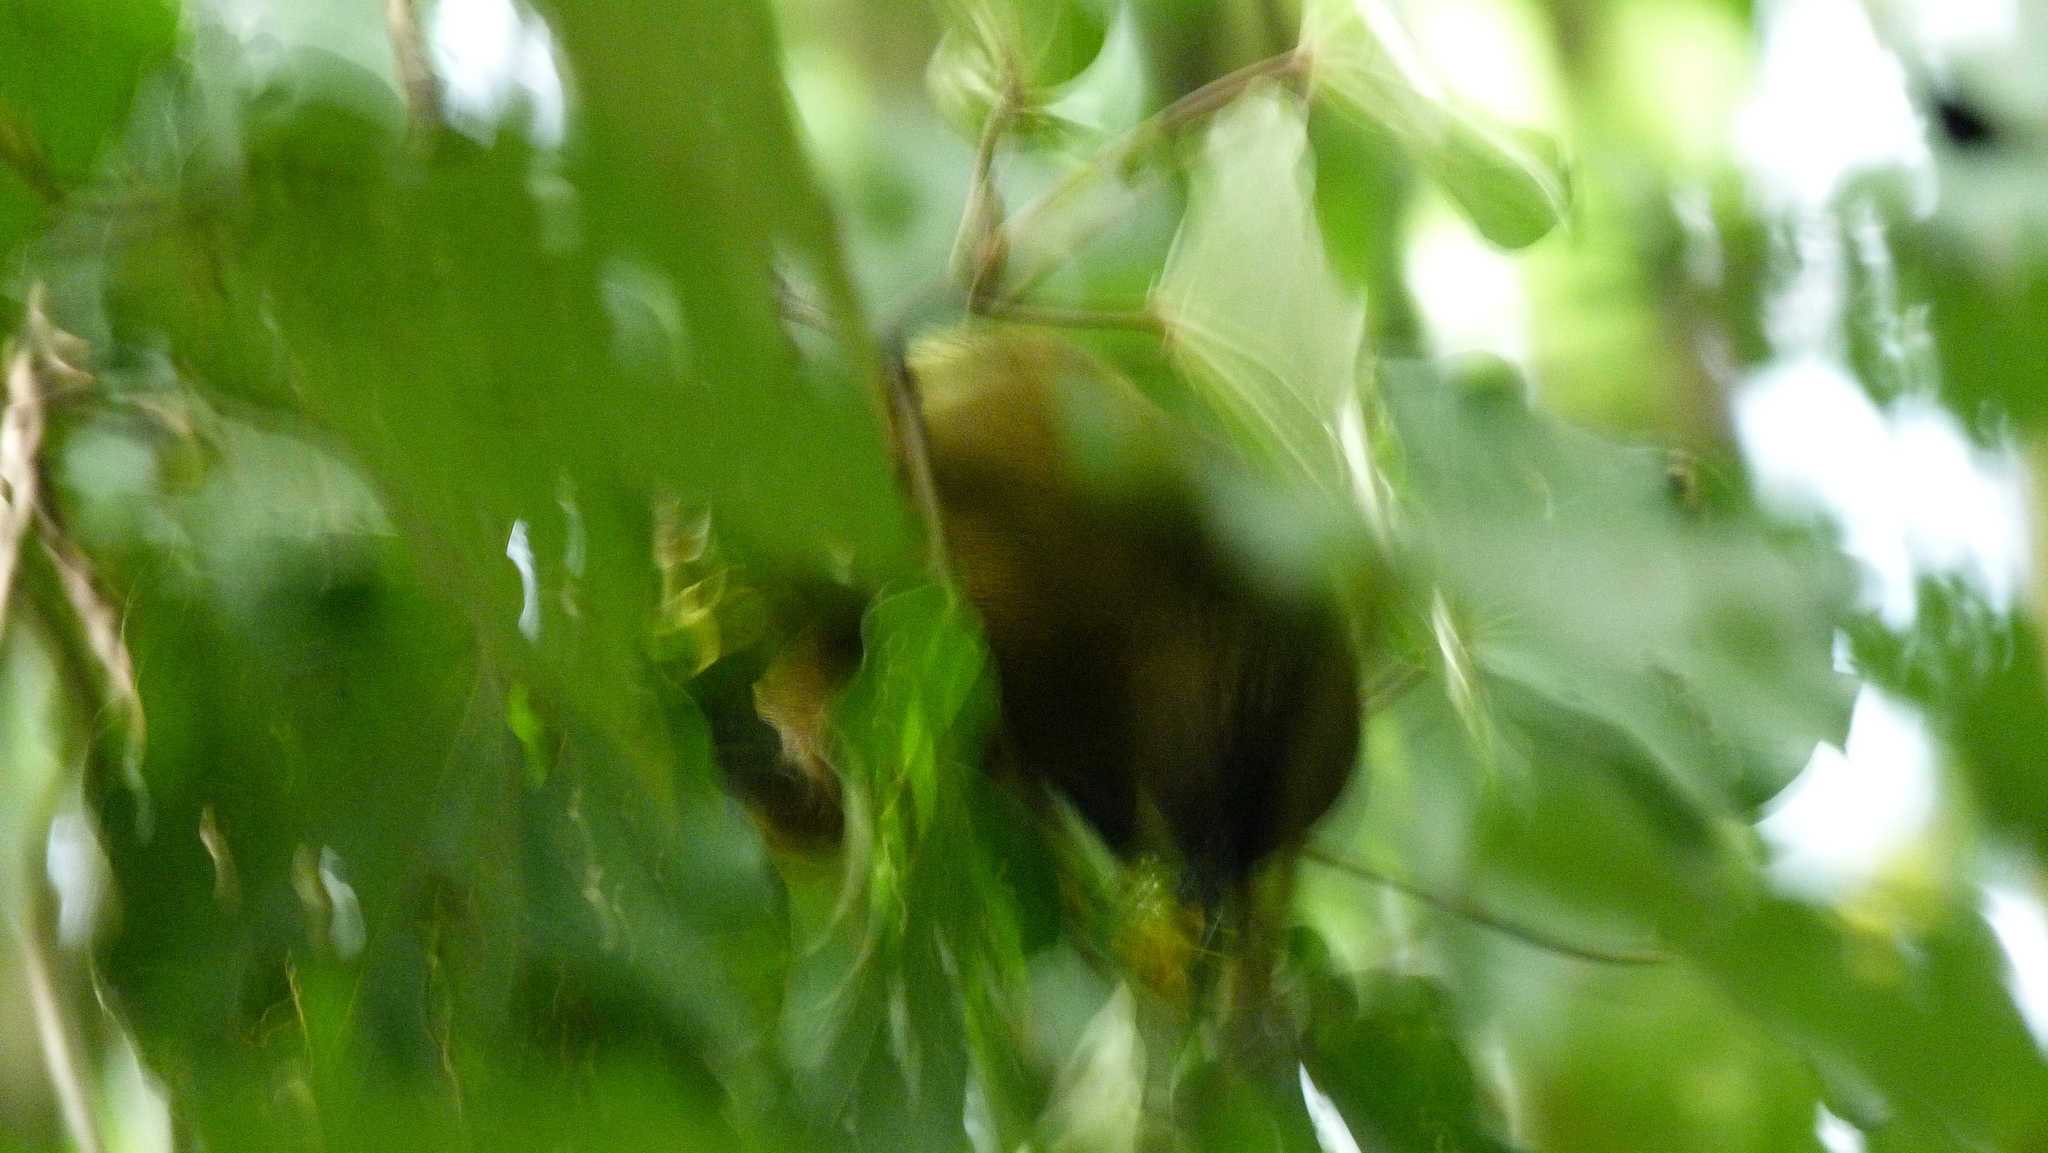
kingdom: Animalia
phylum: Chordata
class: Aves
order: Passeriformes
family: Meliphagidae
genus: Anthornis
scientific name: Anthornis melanura
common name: New zealand bellbird
